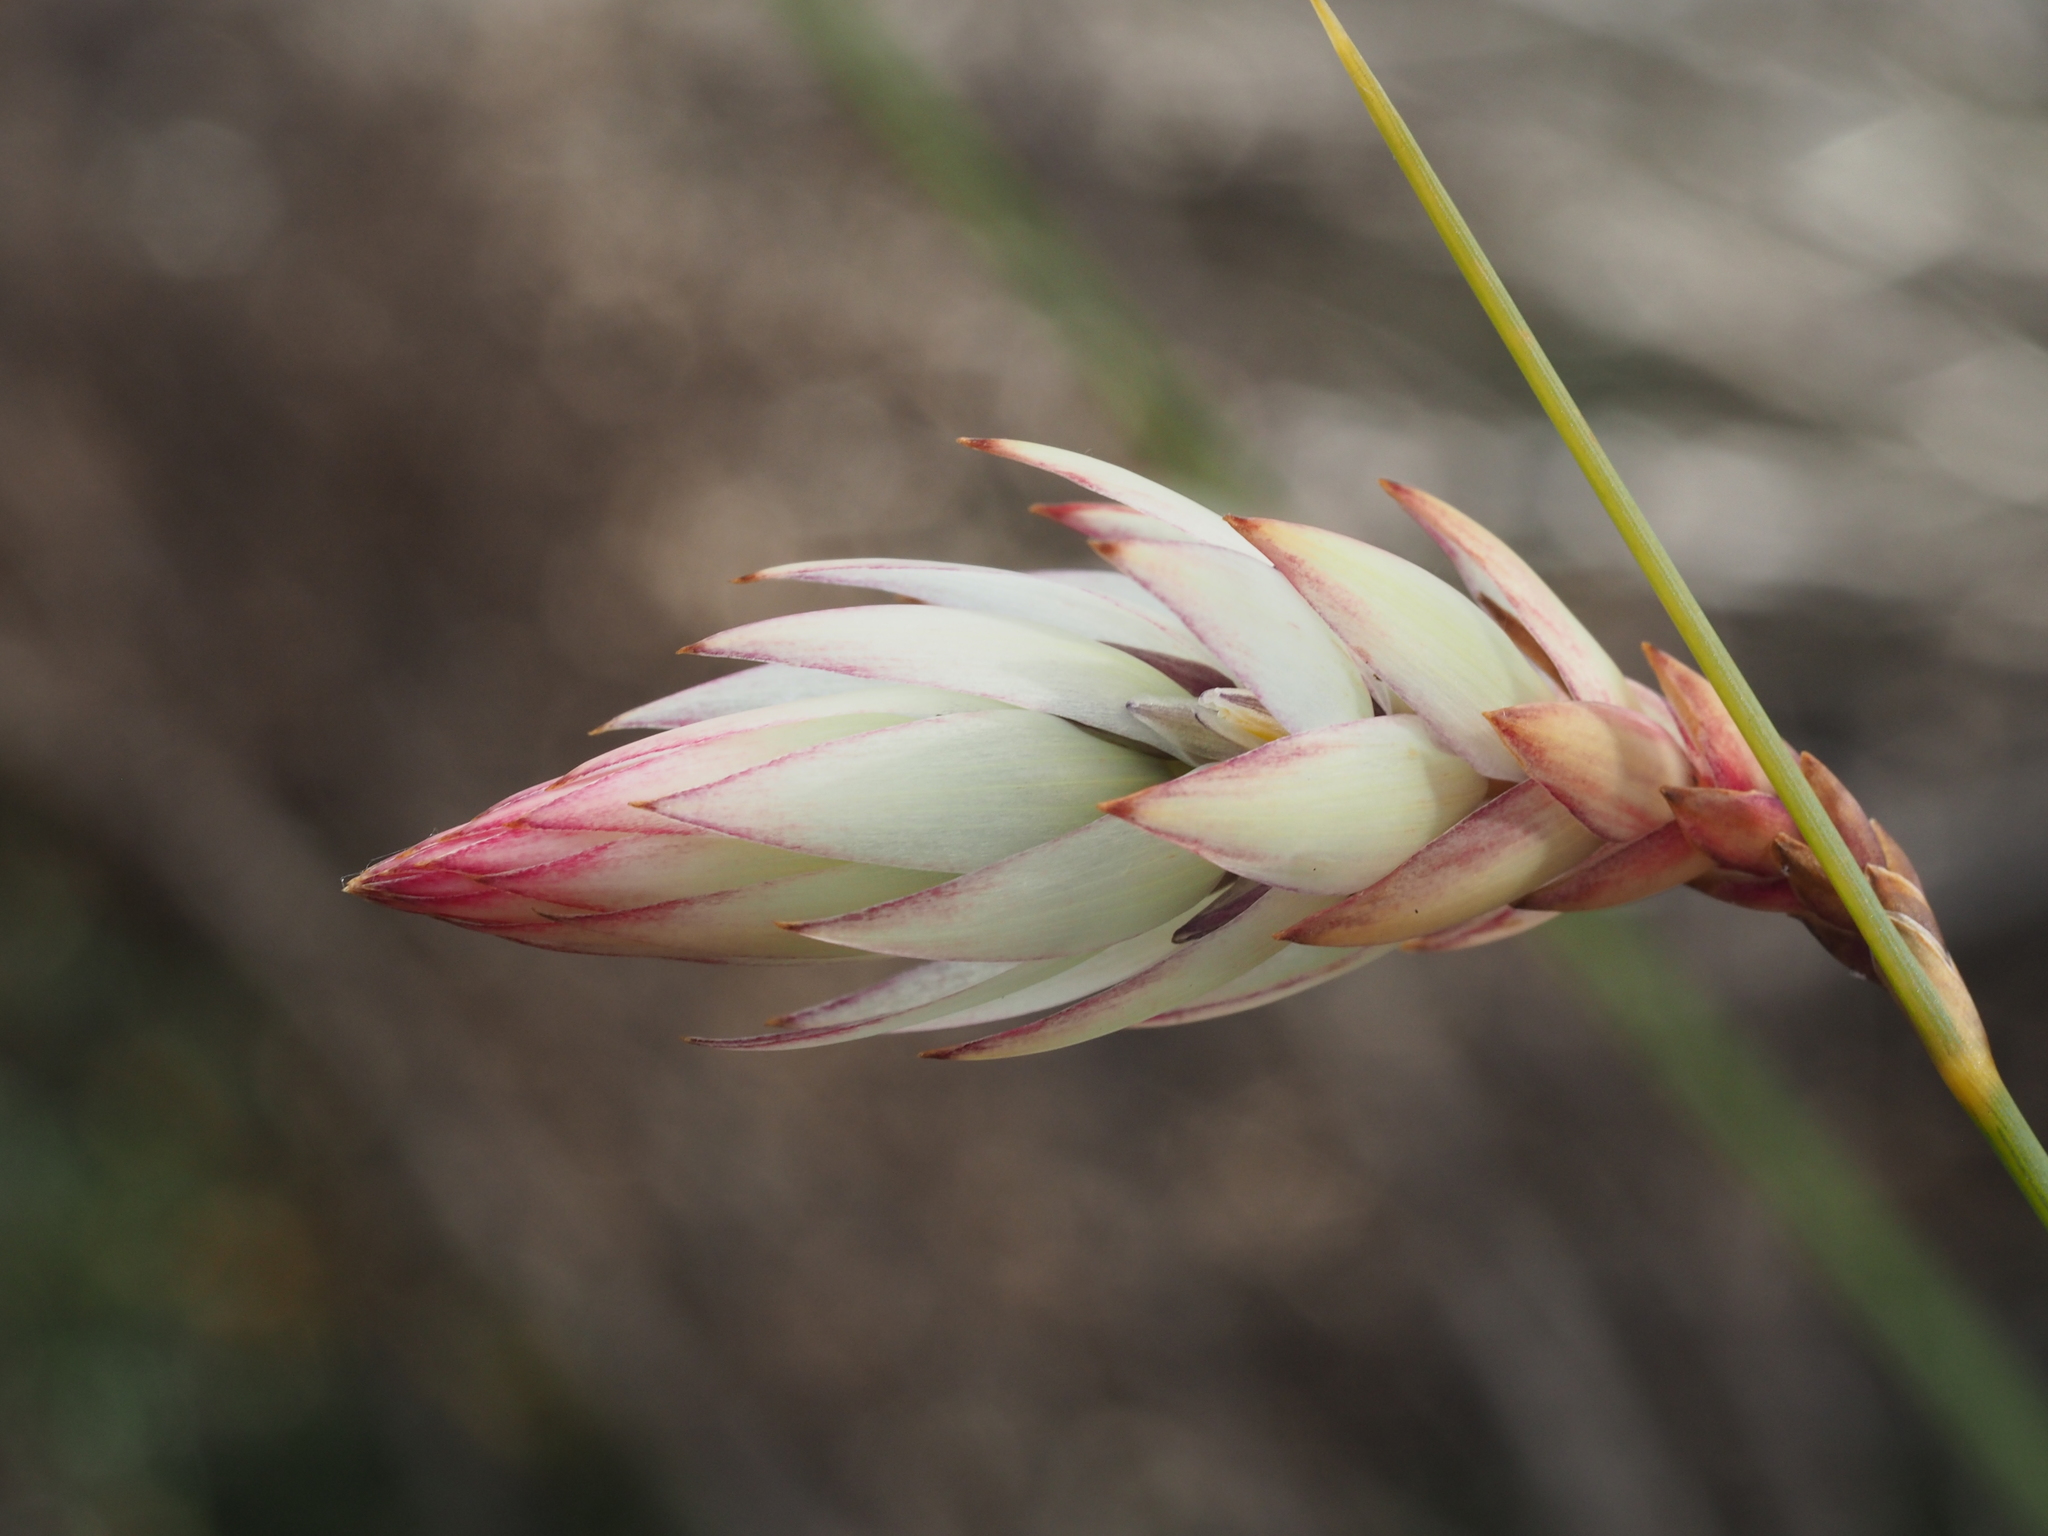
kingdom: Plantae
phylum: Tracheophyta
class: Liliopsida
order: Asparagales
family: Asphodelaceae
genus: Johnsonia
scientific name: Johnsonia lupulina
